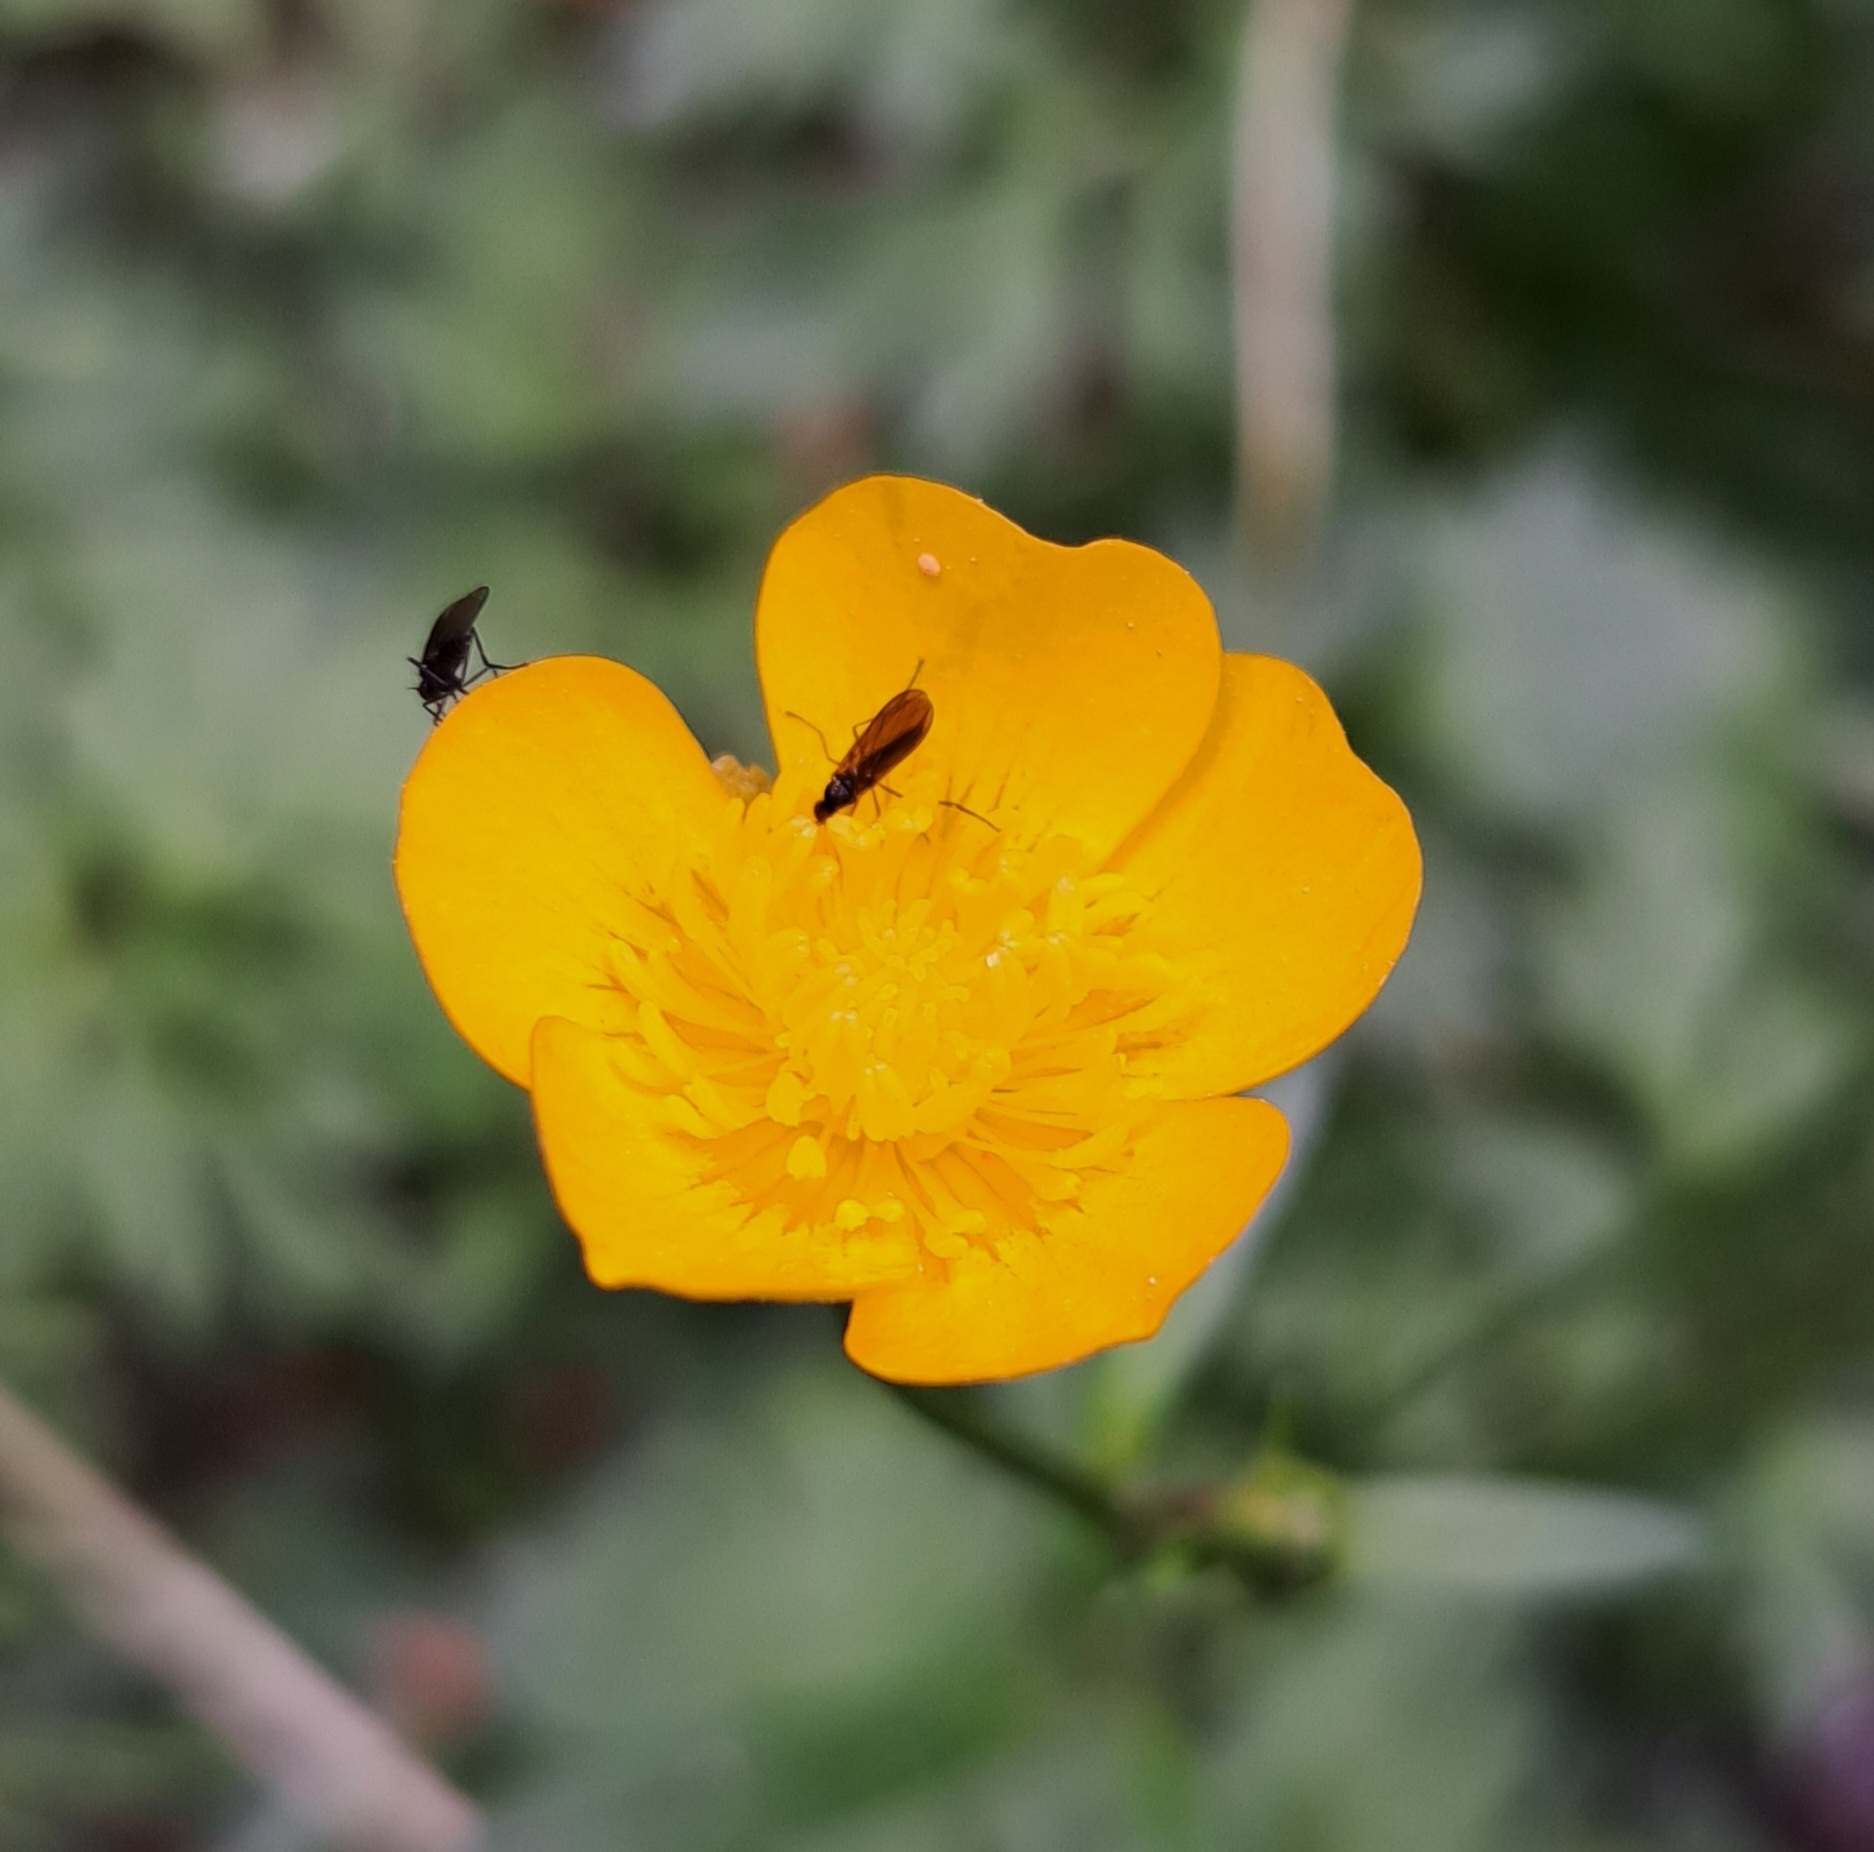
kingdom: Plantae
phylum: Tracheophyta
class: Magnoliopsida
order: Ranunculales
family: Ranunculaceae
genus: Ranunculus
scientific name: Ranunculus repens
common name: Creeping buttercup
